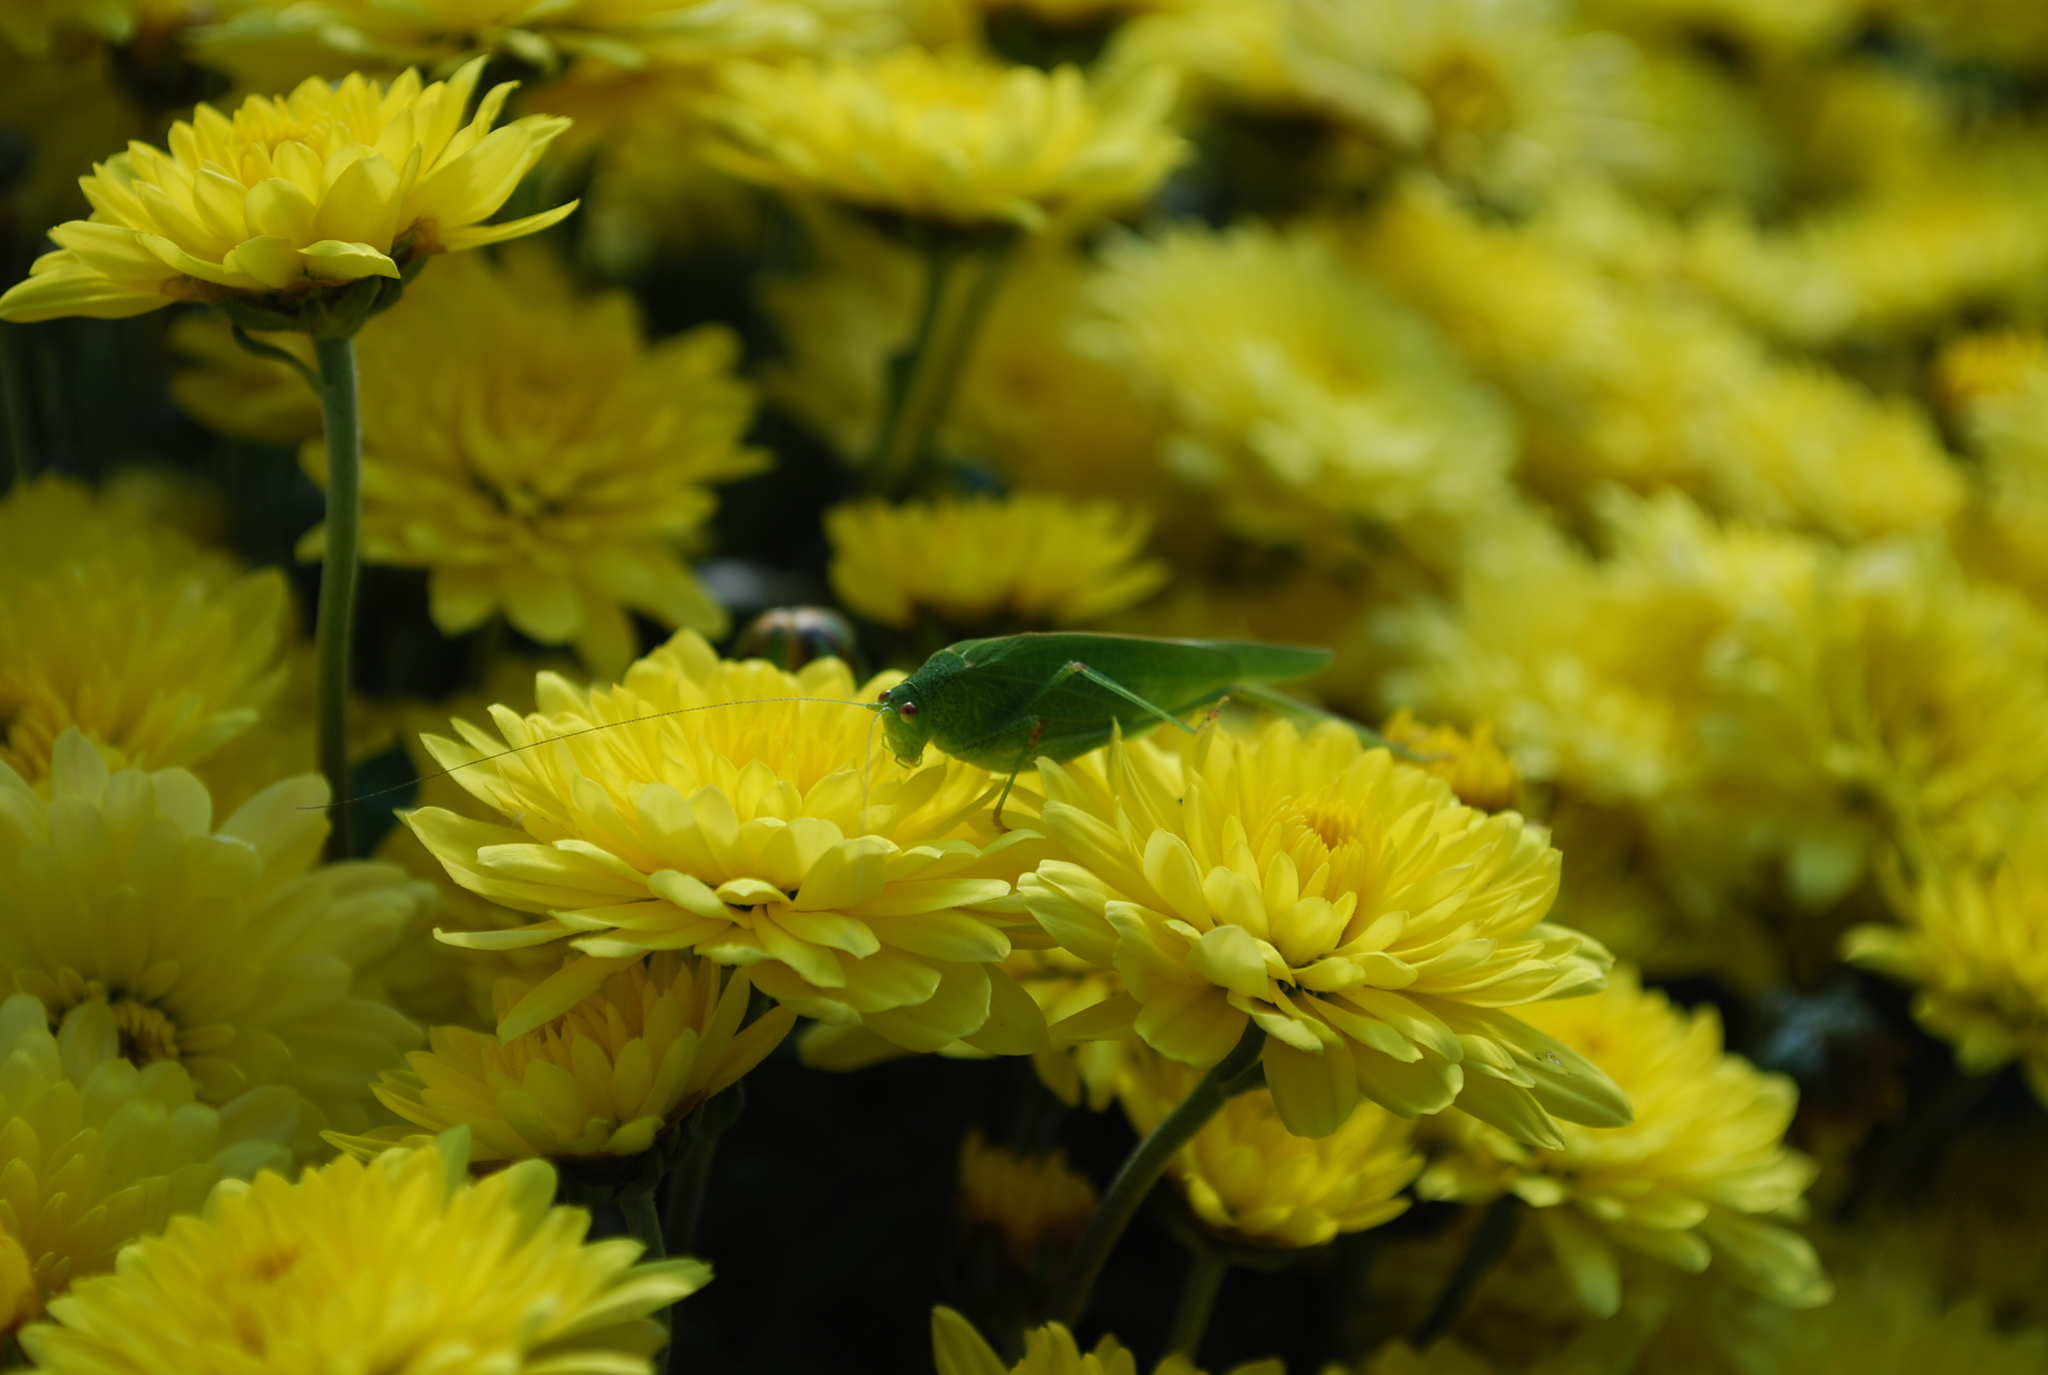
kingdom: Animalia
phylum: Arthropoda
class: Insecta
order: Orthoptera
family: Tettigoniidae
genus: Phaneroptera
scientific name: Phaneroptera nana
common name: Southern sickle bush-cricket
